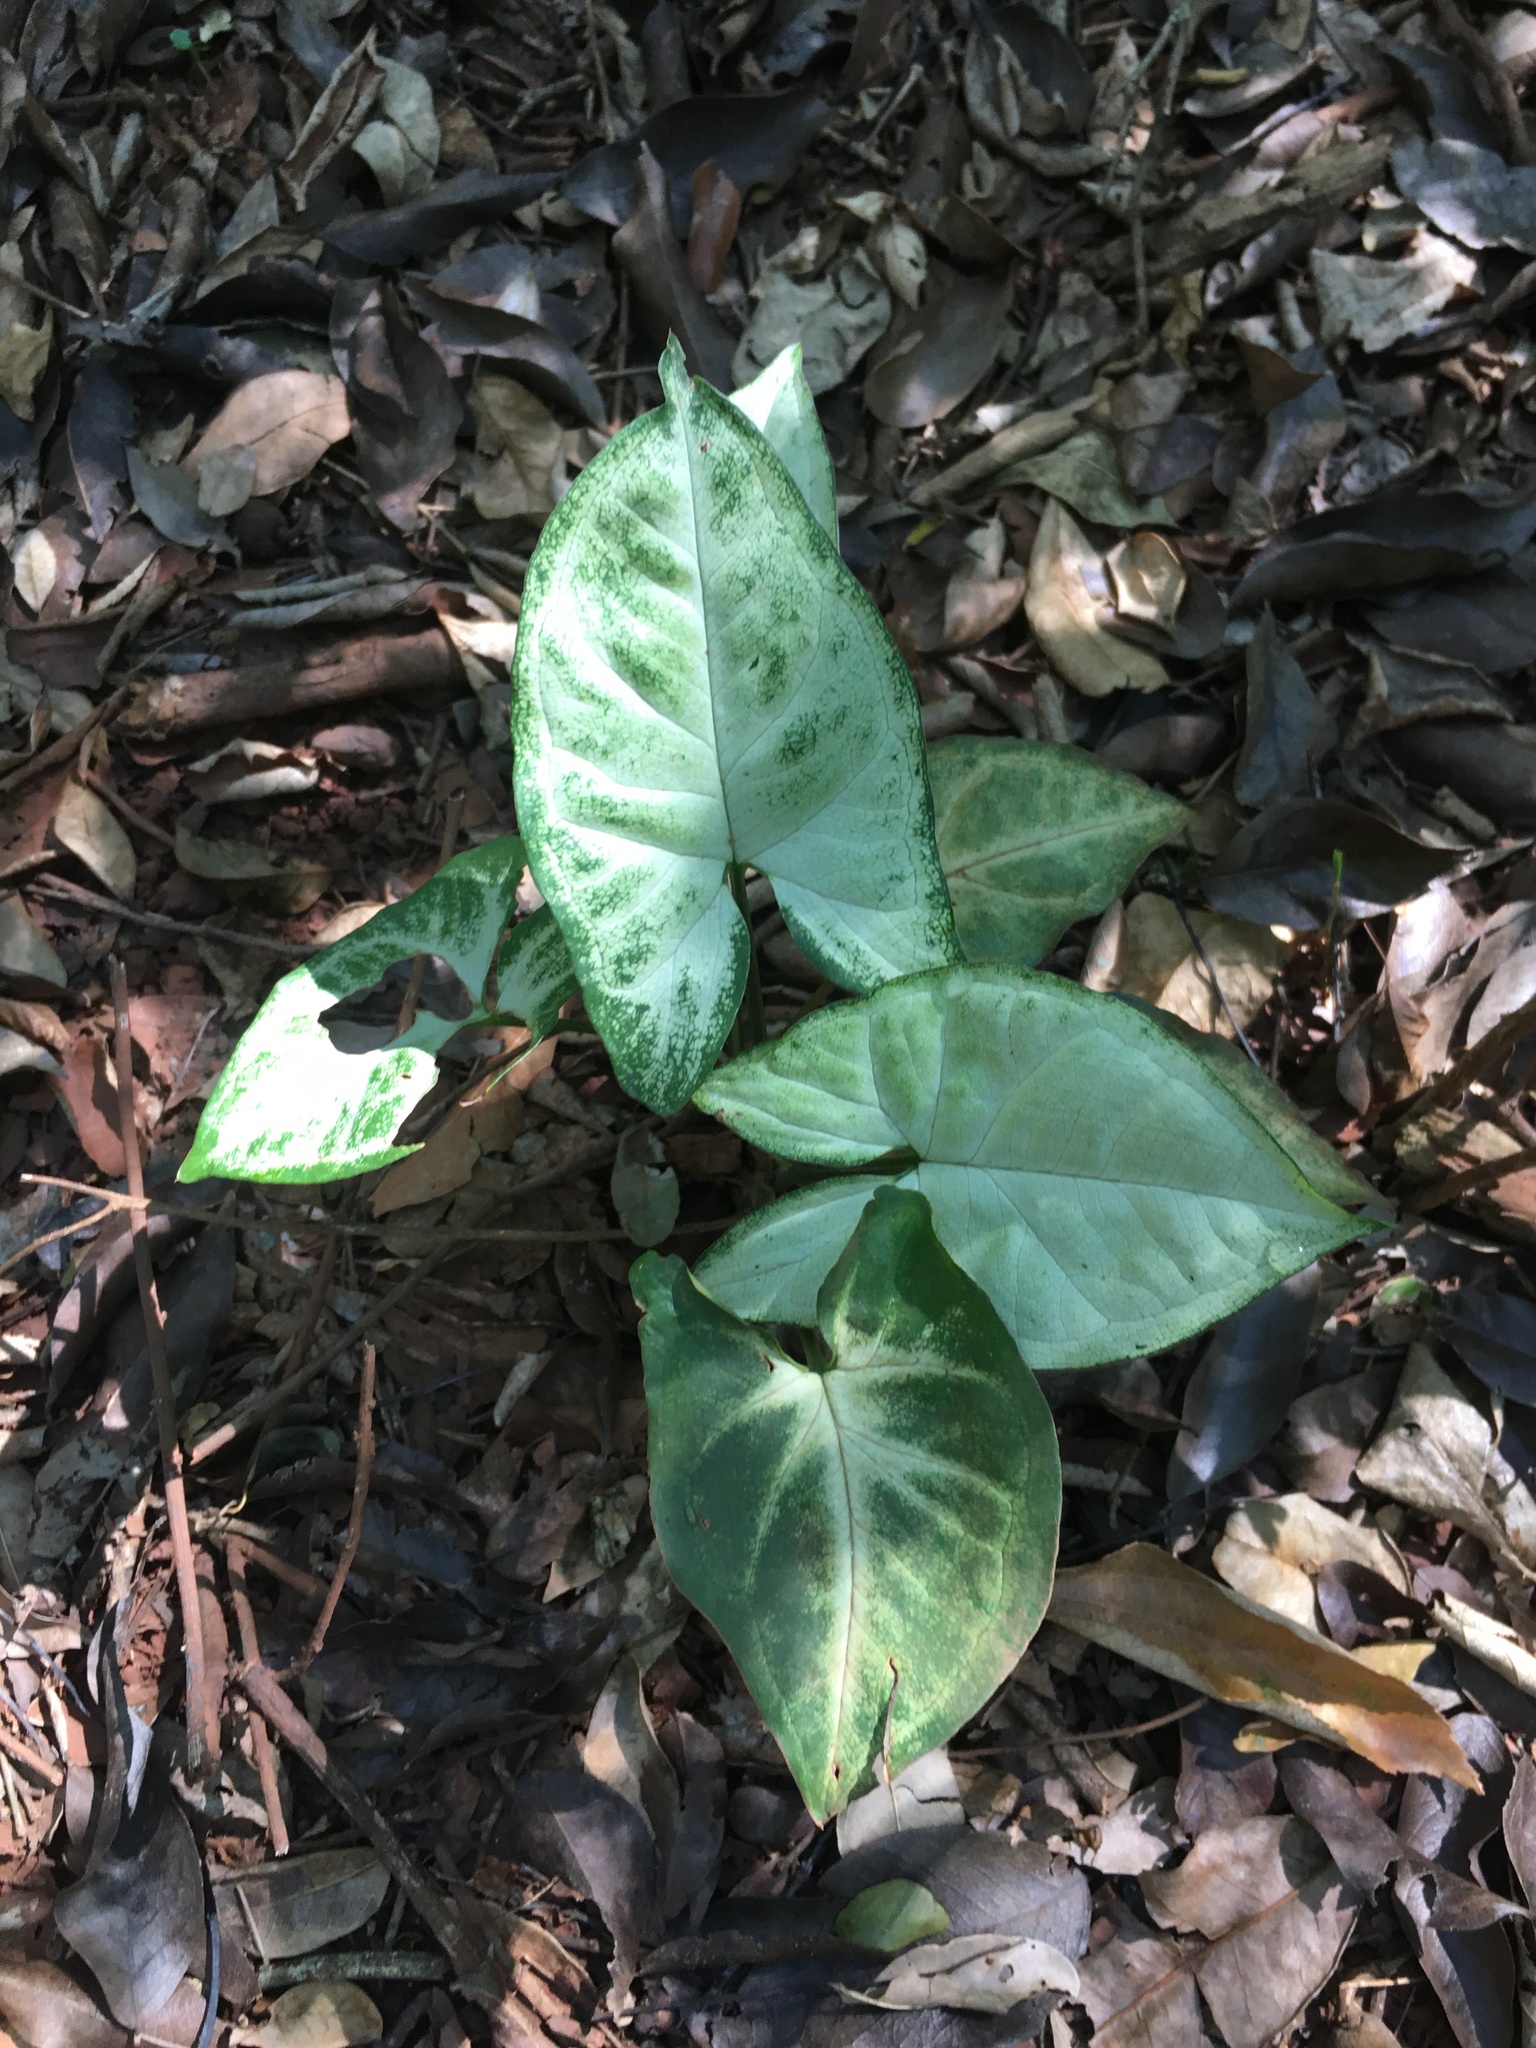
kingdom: Plantae
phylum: Tracheophyta
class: Liliopsida
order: Alismatales
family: Araceae
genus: Syngonium
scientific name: Syngonium podophyllum
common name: American evergreen
